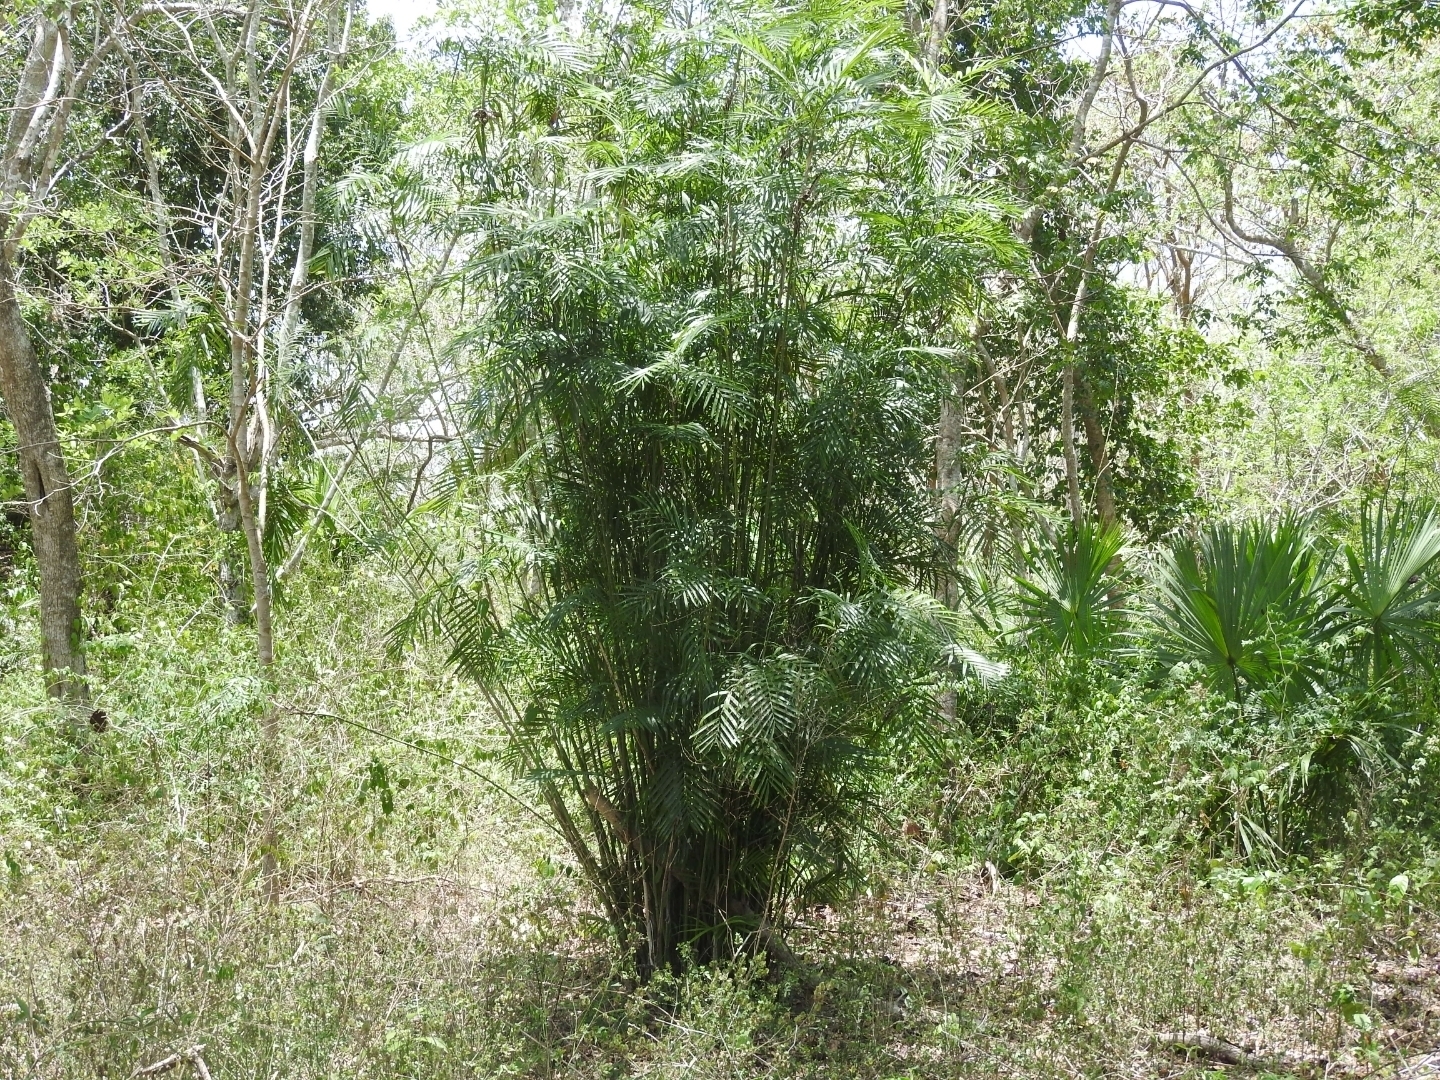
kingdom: Plantae
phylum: Tracheophyta
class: Liliopsida
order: Arecales
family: Arecaceae
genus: Chamaedorea
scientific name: Chamaedorea seifrizii
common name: Seifriz's chamaedorea
